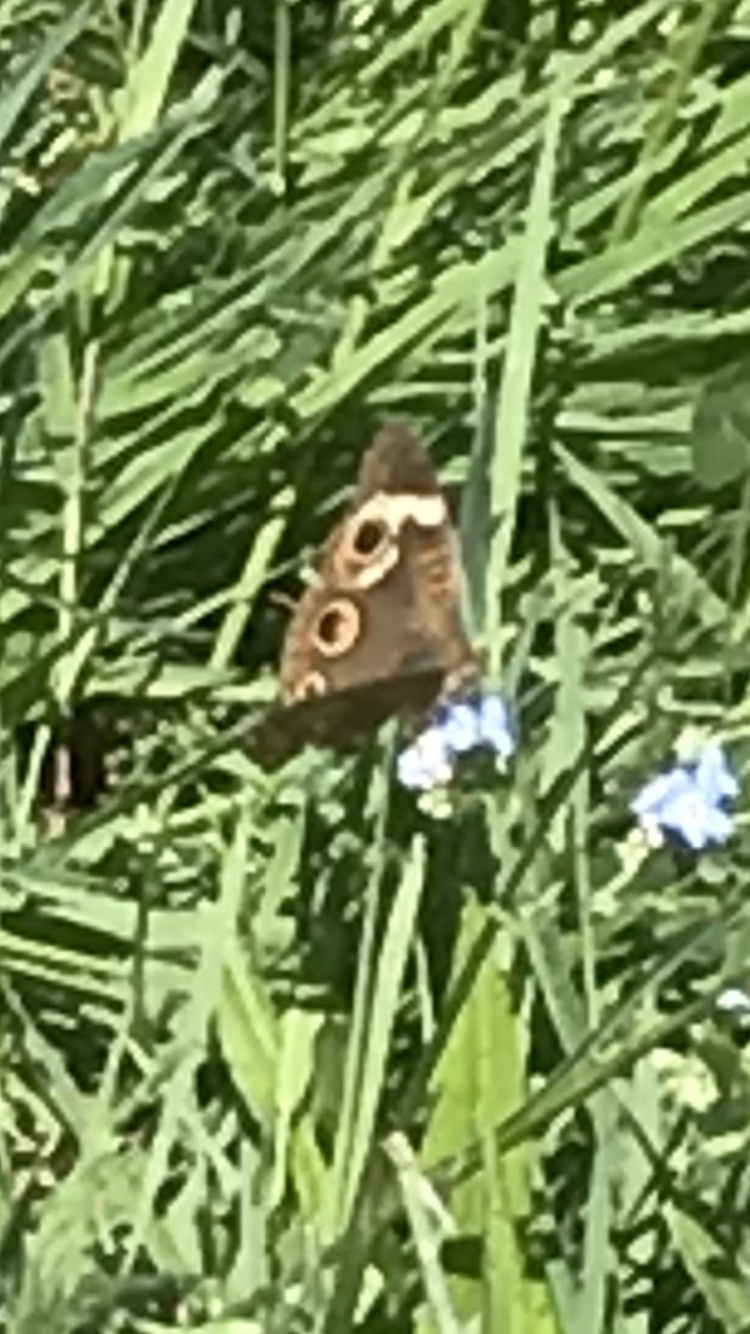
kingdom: Animalia
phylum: Arthropoda
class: Insecta
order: Lepidoptera
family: Nymphalidae
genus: Junonia
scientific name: Junonia grisea
